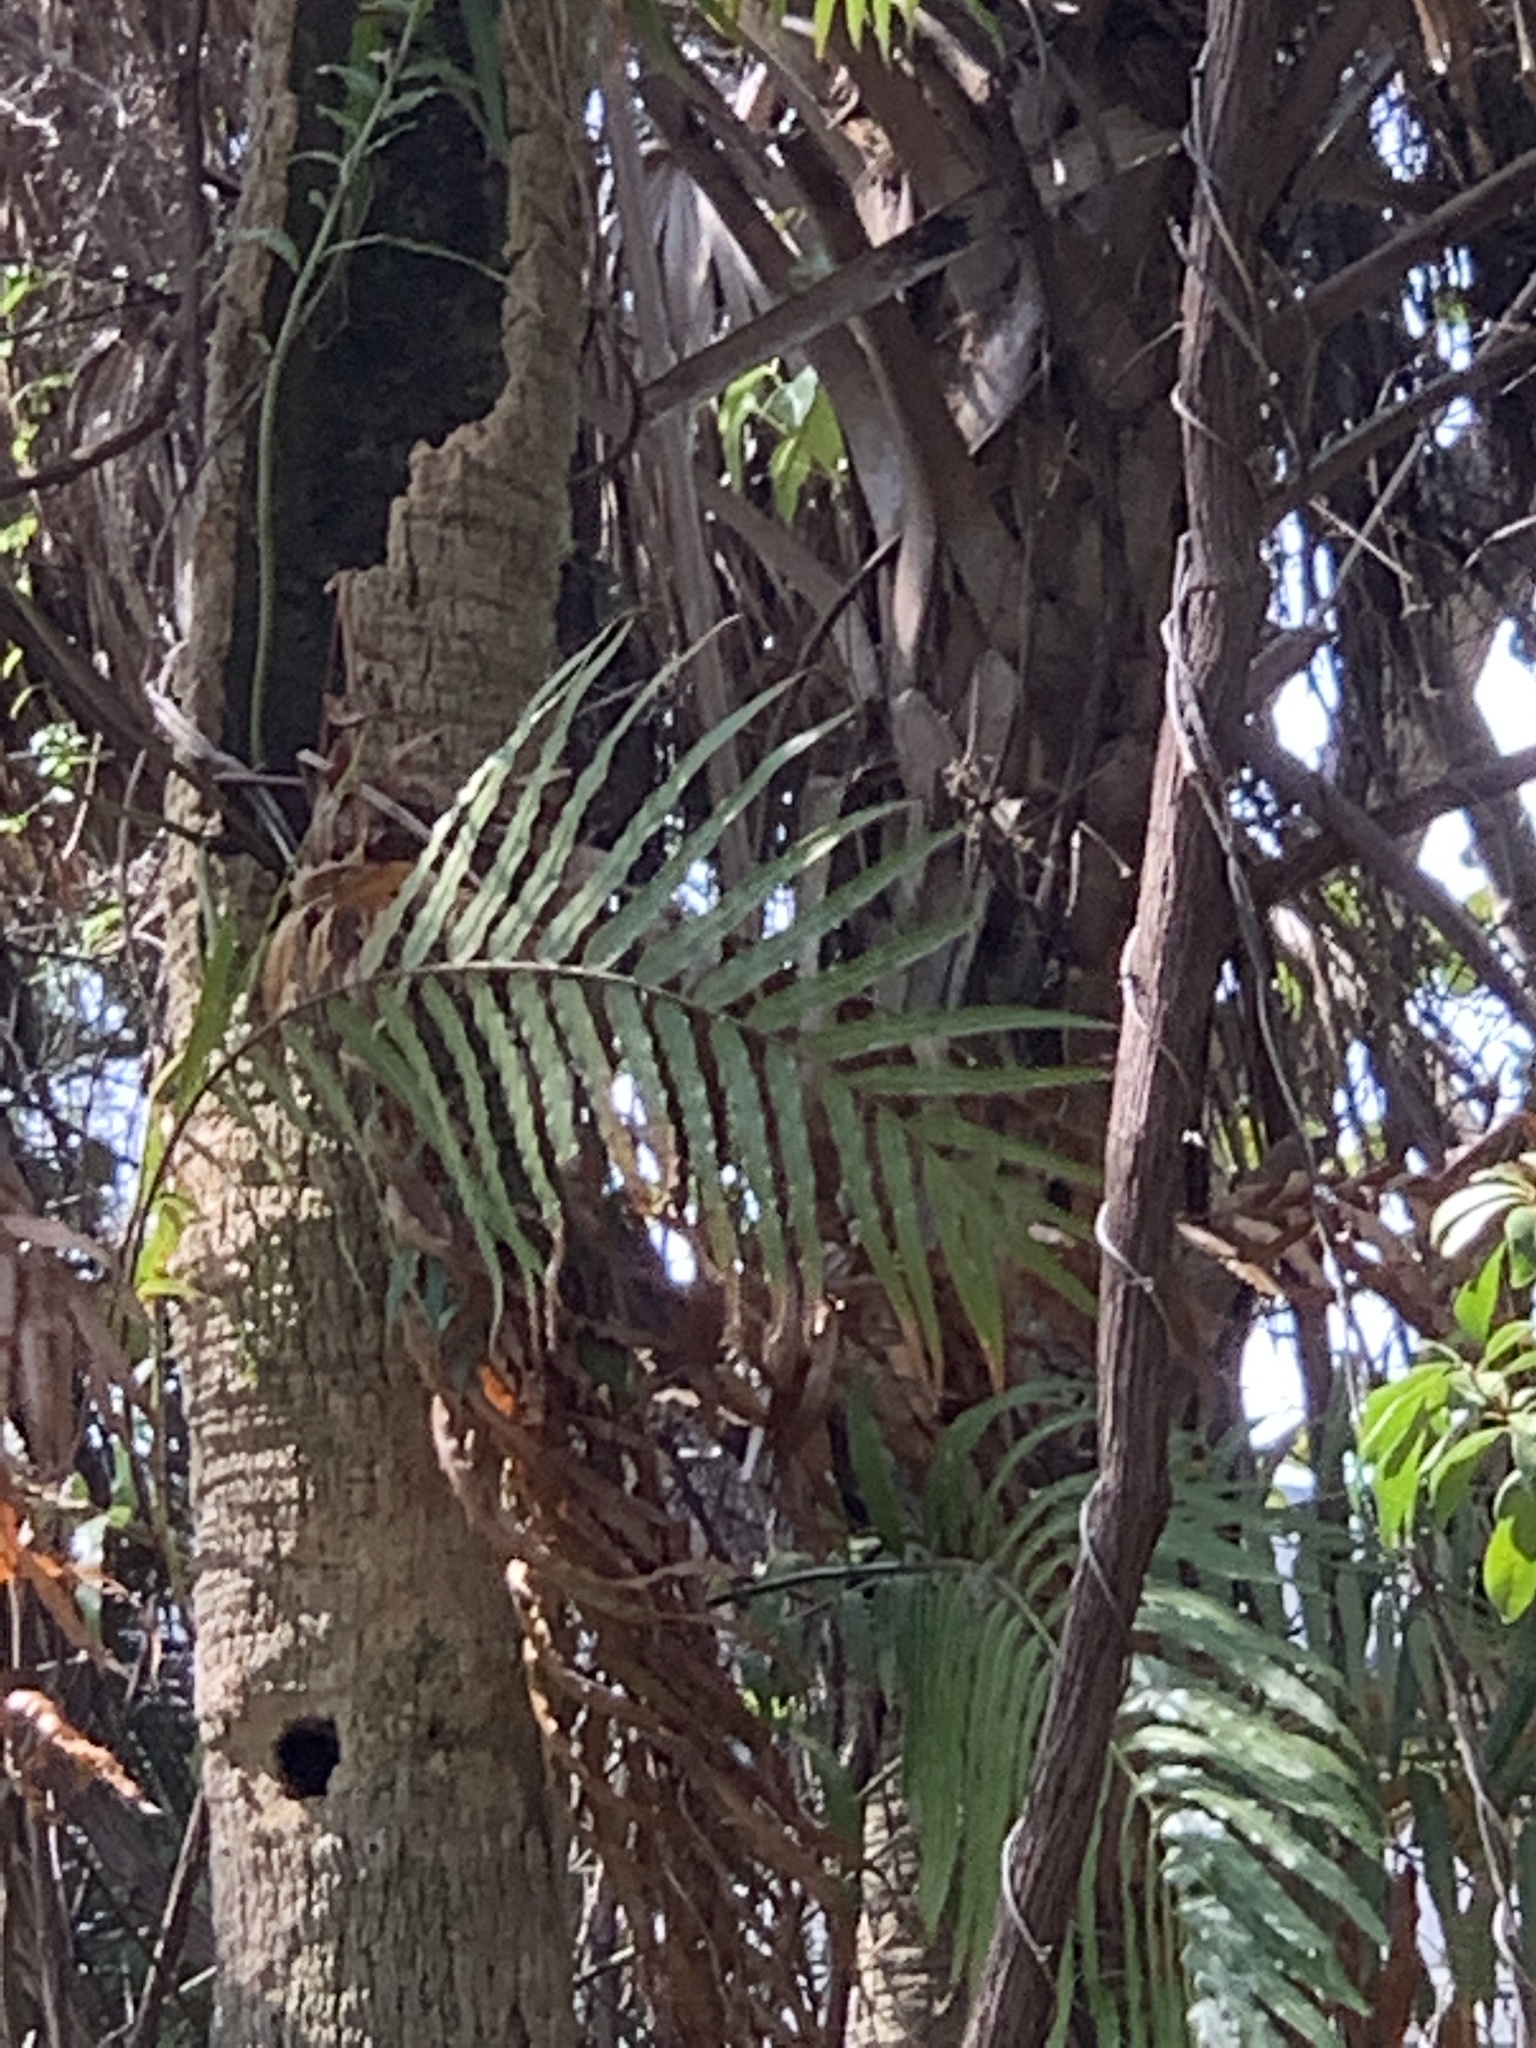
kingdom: Plantae
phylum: Tracheophyta
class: Polypodiopsida
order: Polypodiales
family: Blechnaceae
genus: Stenochlaena
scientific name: Stenochlaena tenuifolia
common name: Giant vine fern
